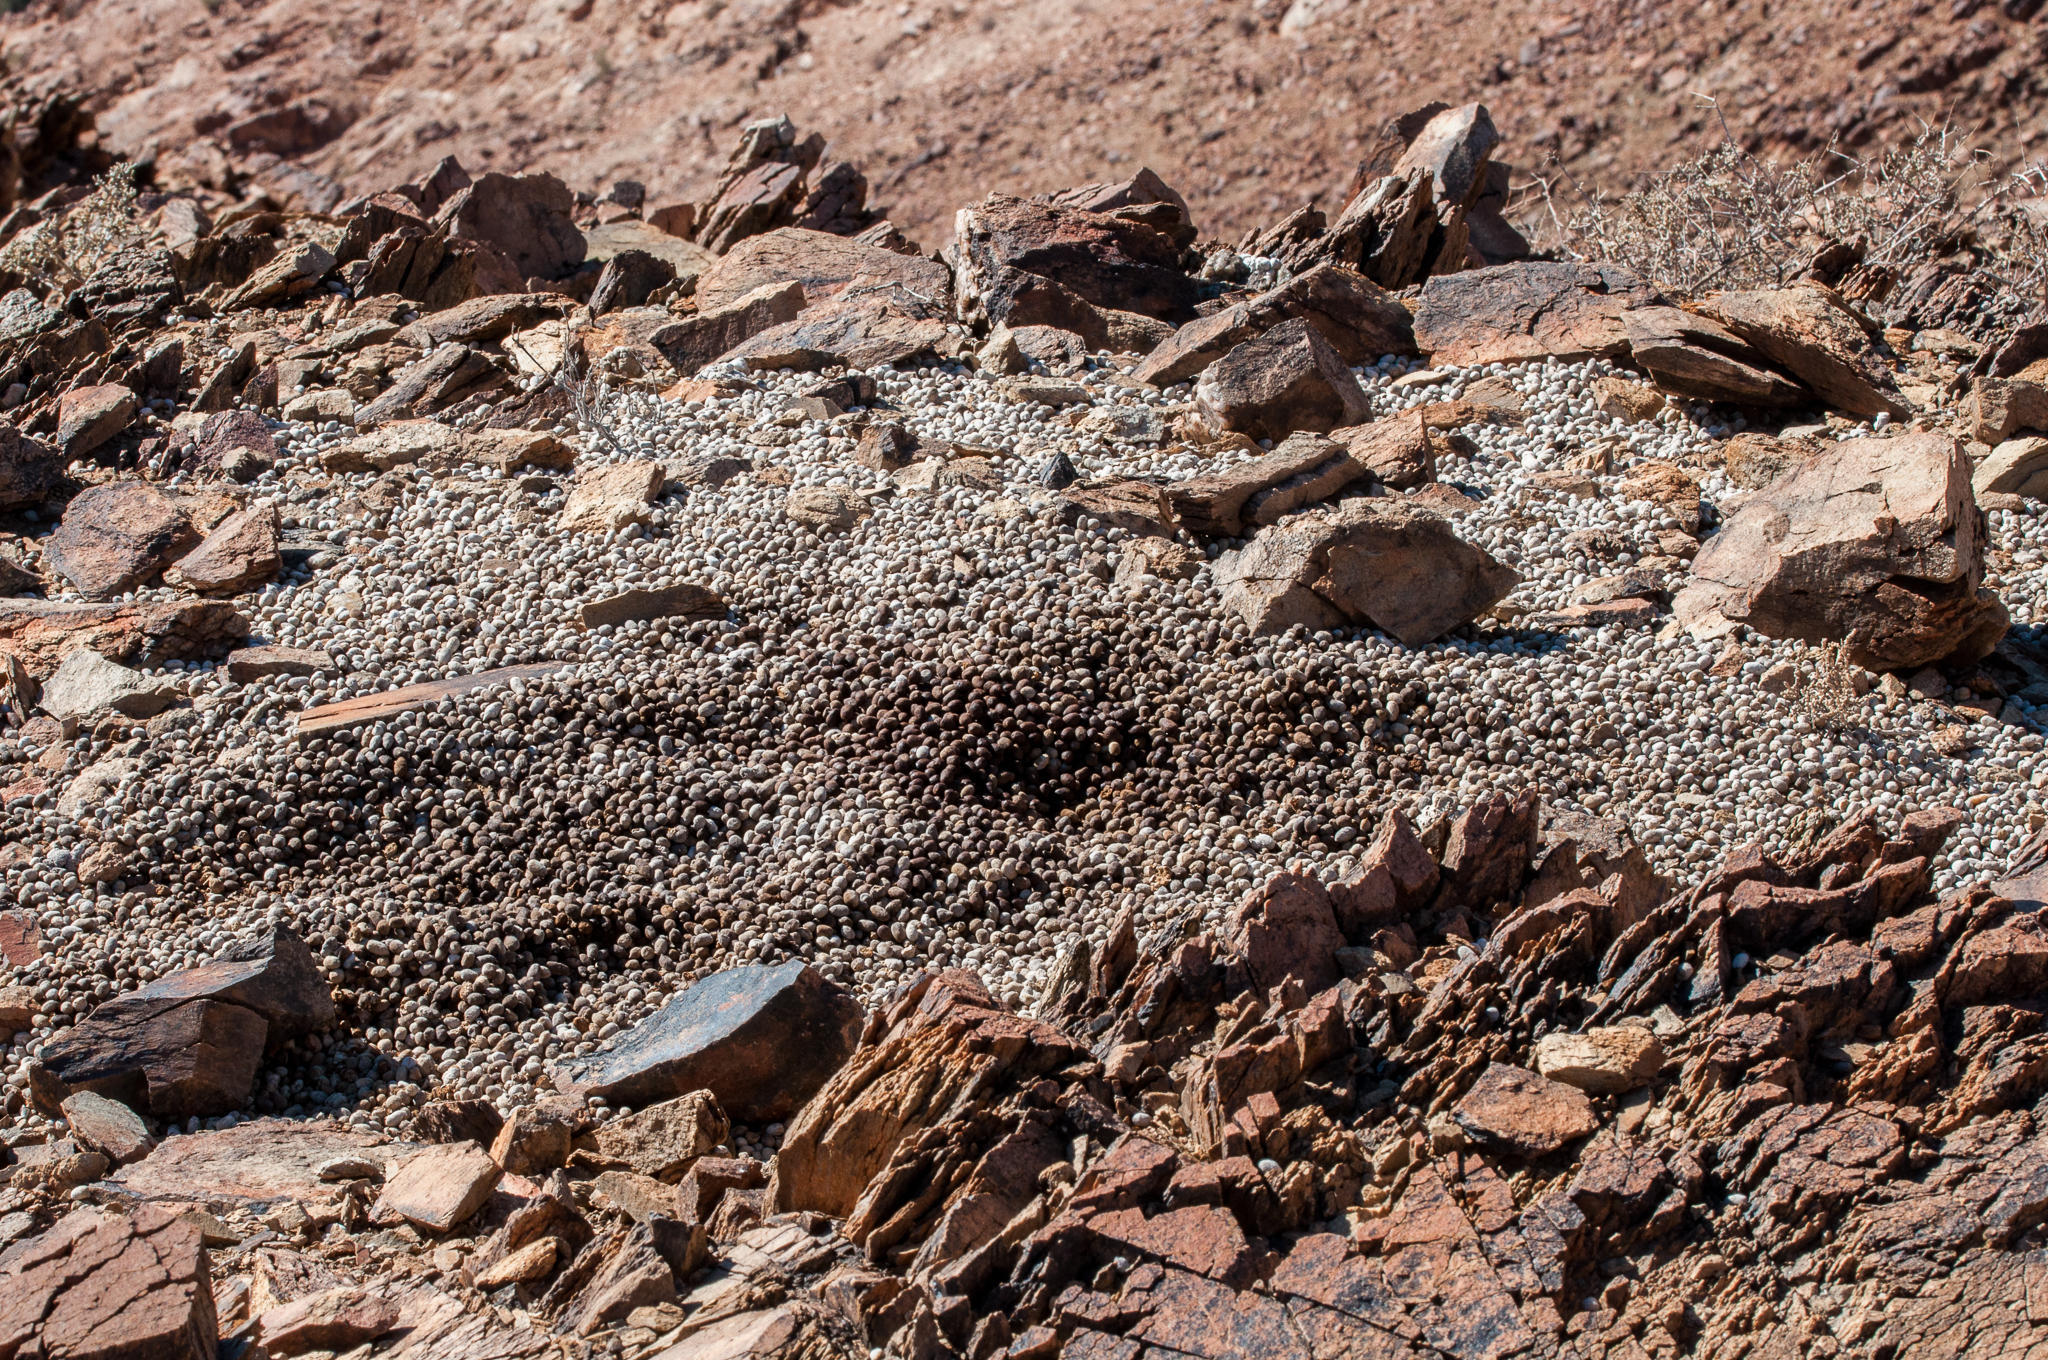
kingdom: Animalia
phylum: Chordata
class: Mammalia
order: Hyracoidea
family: Procaviidae
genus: Procavia
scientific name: Procavia capensis
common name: Rock hyrax
